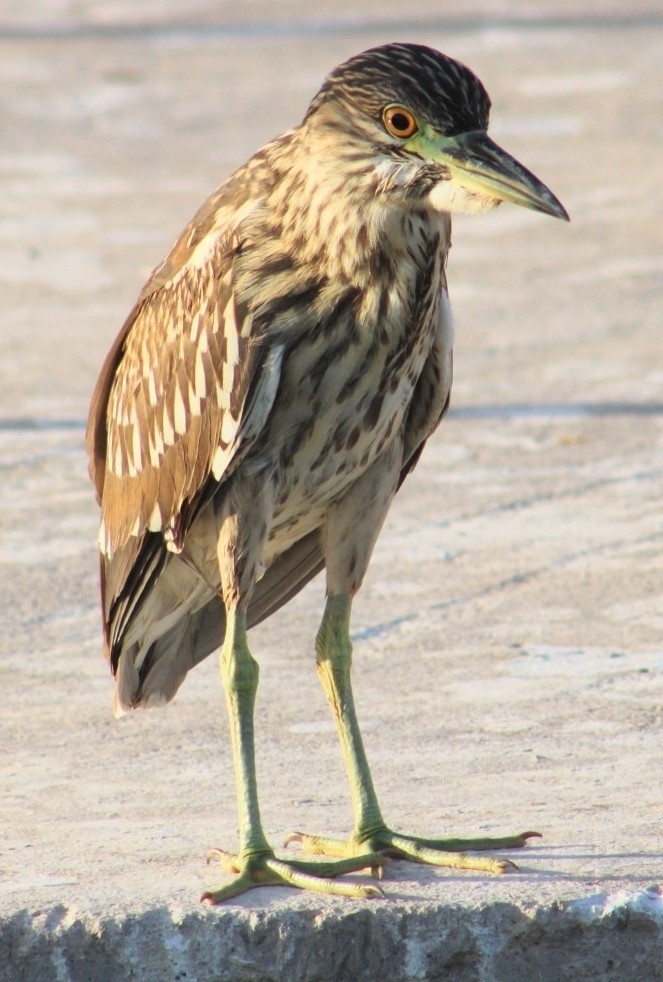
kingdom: Animalia
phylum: Chordata
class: Aves
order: Pelecaniformes
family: Ardeidae
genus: Nycticorax
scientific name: Nycticorax nycticorax
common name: Black-crowned night heron
